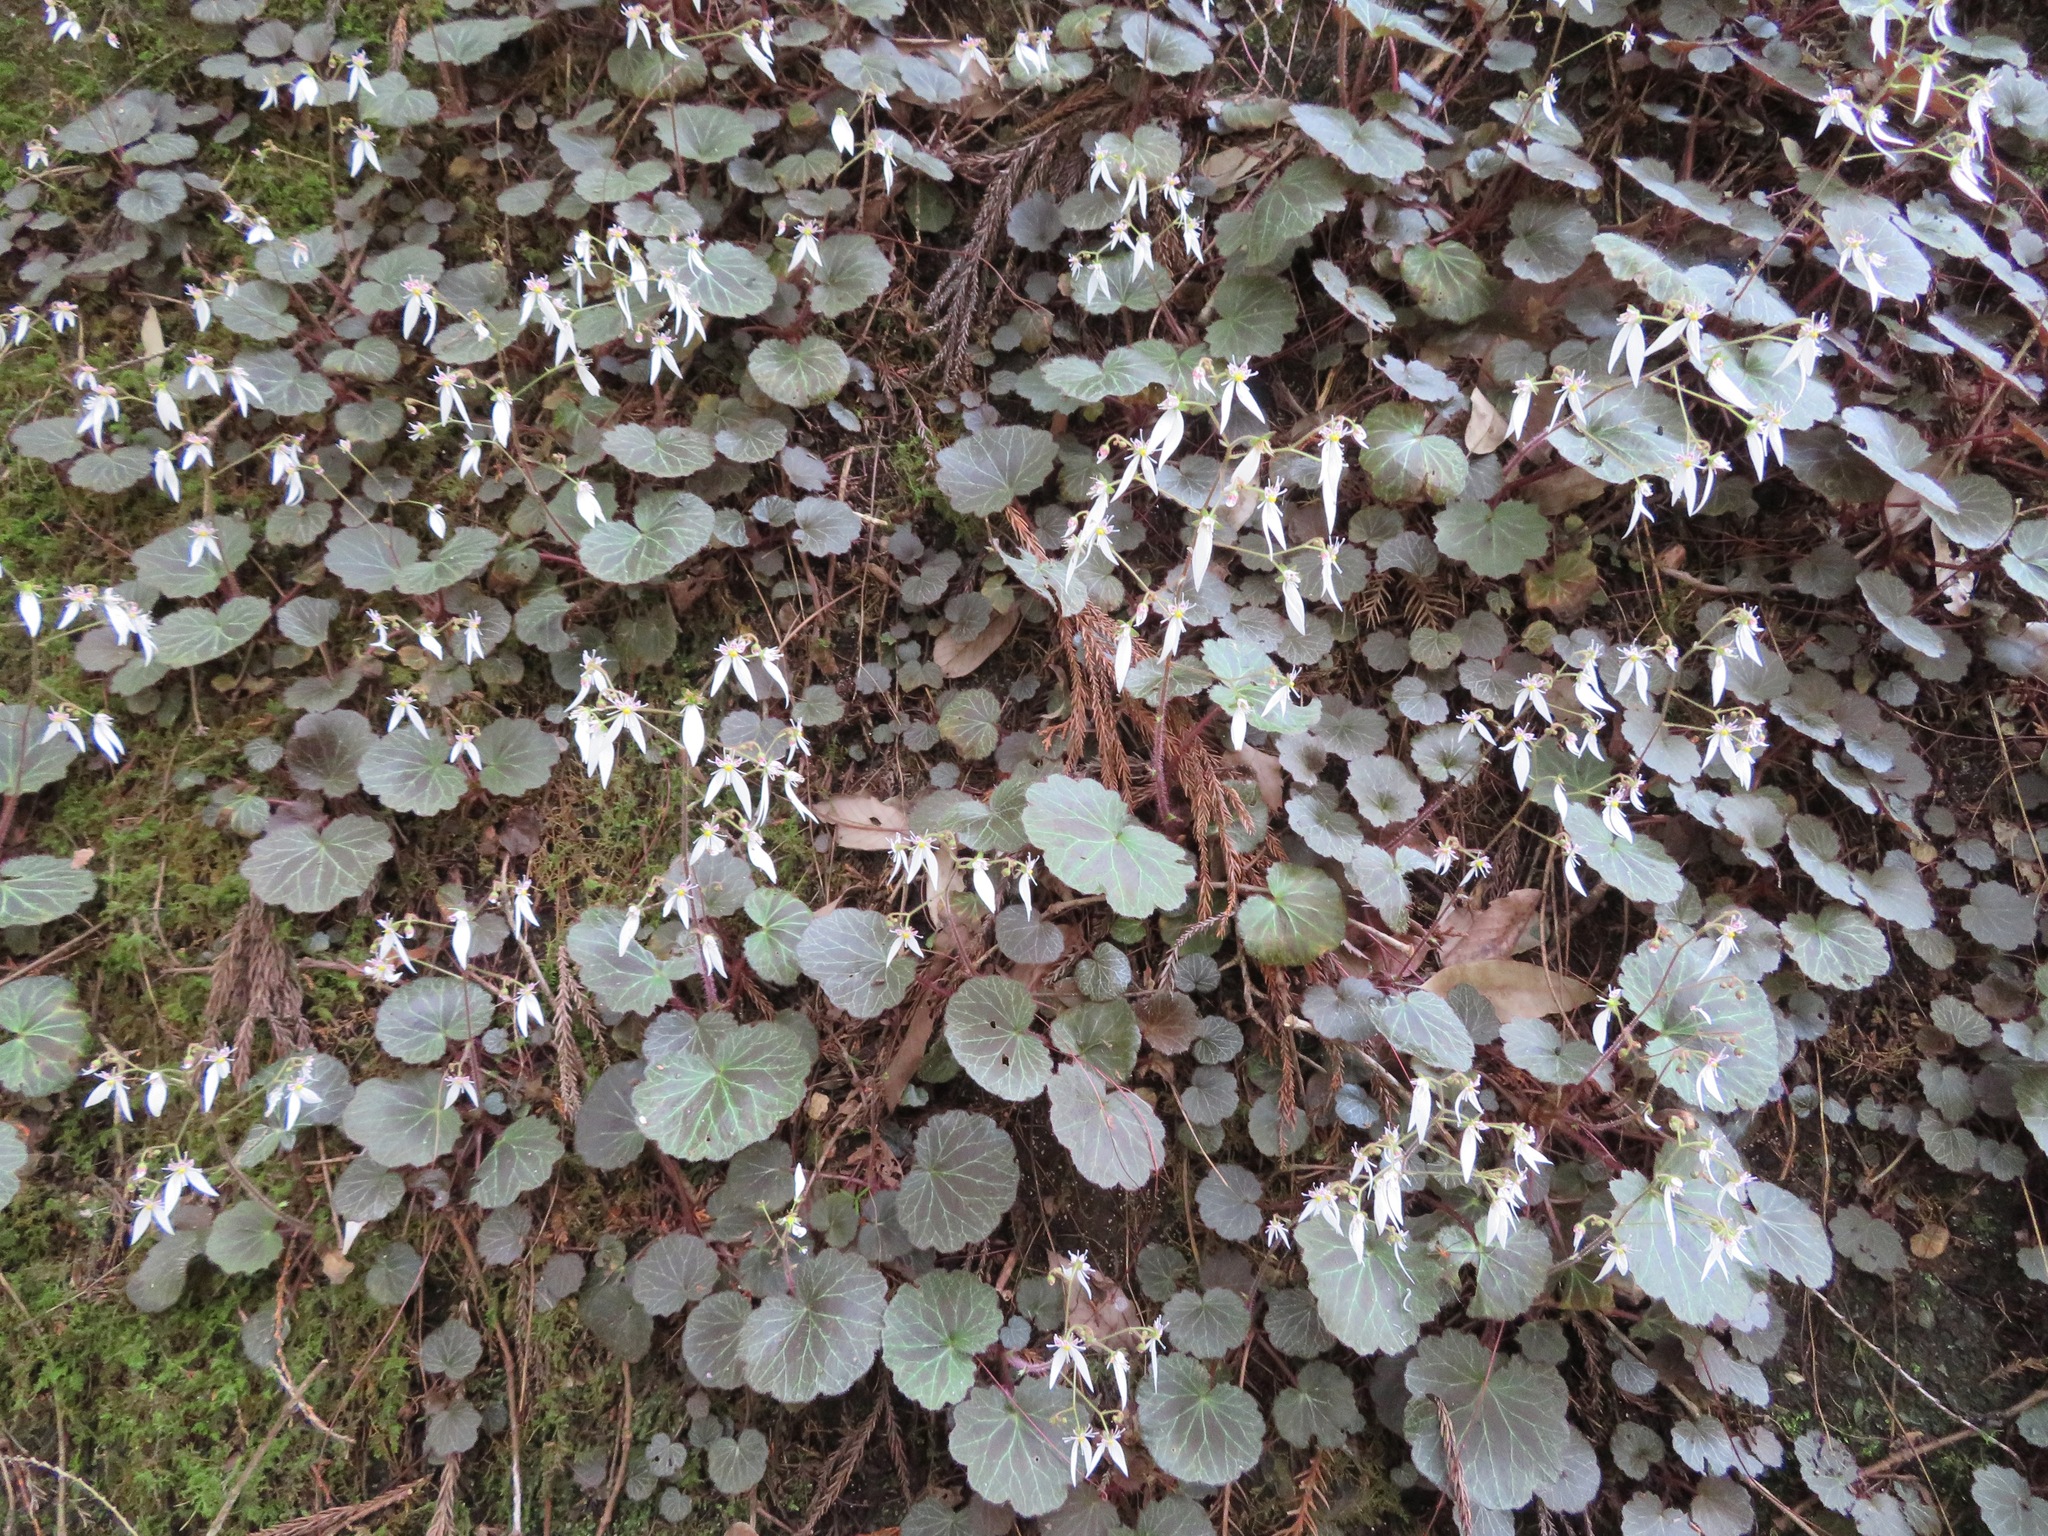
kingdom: Plantae
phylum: Tracheophyta
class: Magnoliopsida
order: Saxifragales
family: Saxifragaceae
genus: Saxifraga
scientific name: Saxifraga stolonifera
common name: Creeping saxifrage
